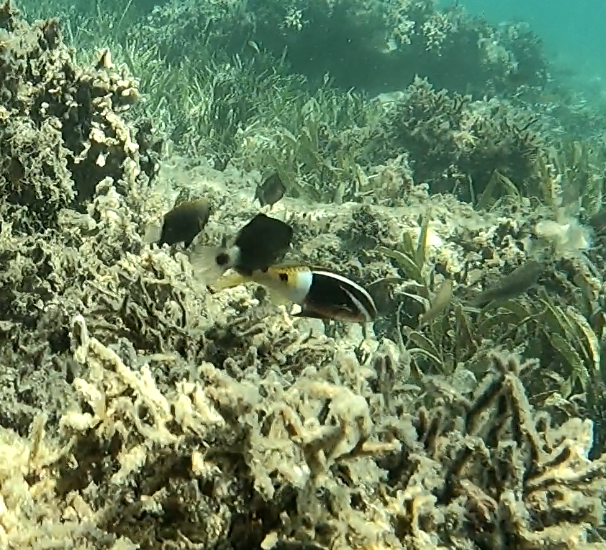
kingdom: Animalia
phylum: Chordata
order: Perciformes
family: Mullidae
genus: Parupeneus
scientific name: Parupeneus barberinoides
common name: Half-and-half goatfish
